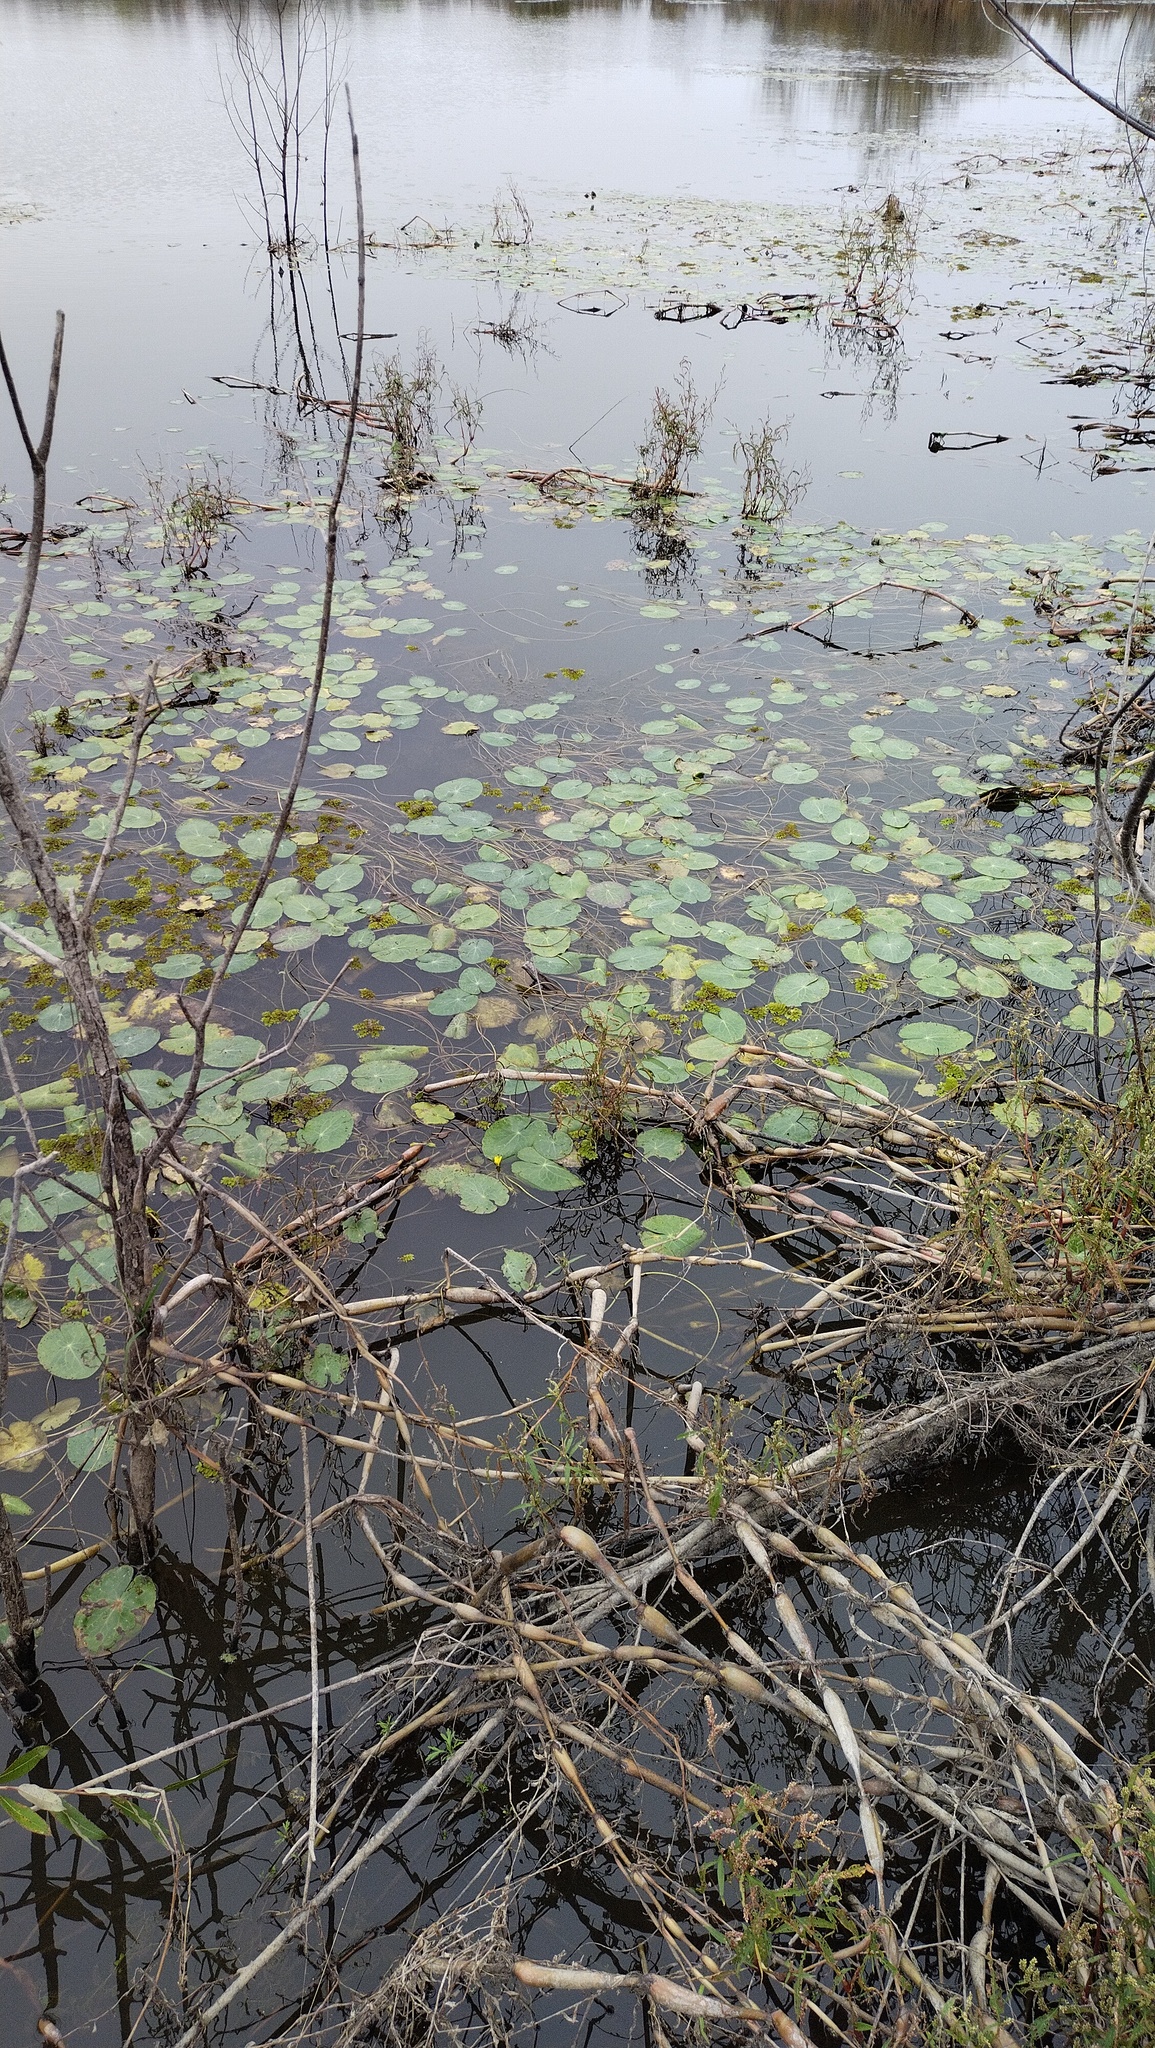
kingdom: Plantae
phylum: Tracheophyta
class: Magnoliopsida
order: Asterales
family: Menyanthaceae
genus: Nymphoides
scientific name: Nymphoides peltata
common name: Fringed water-lily
